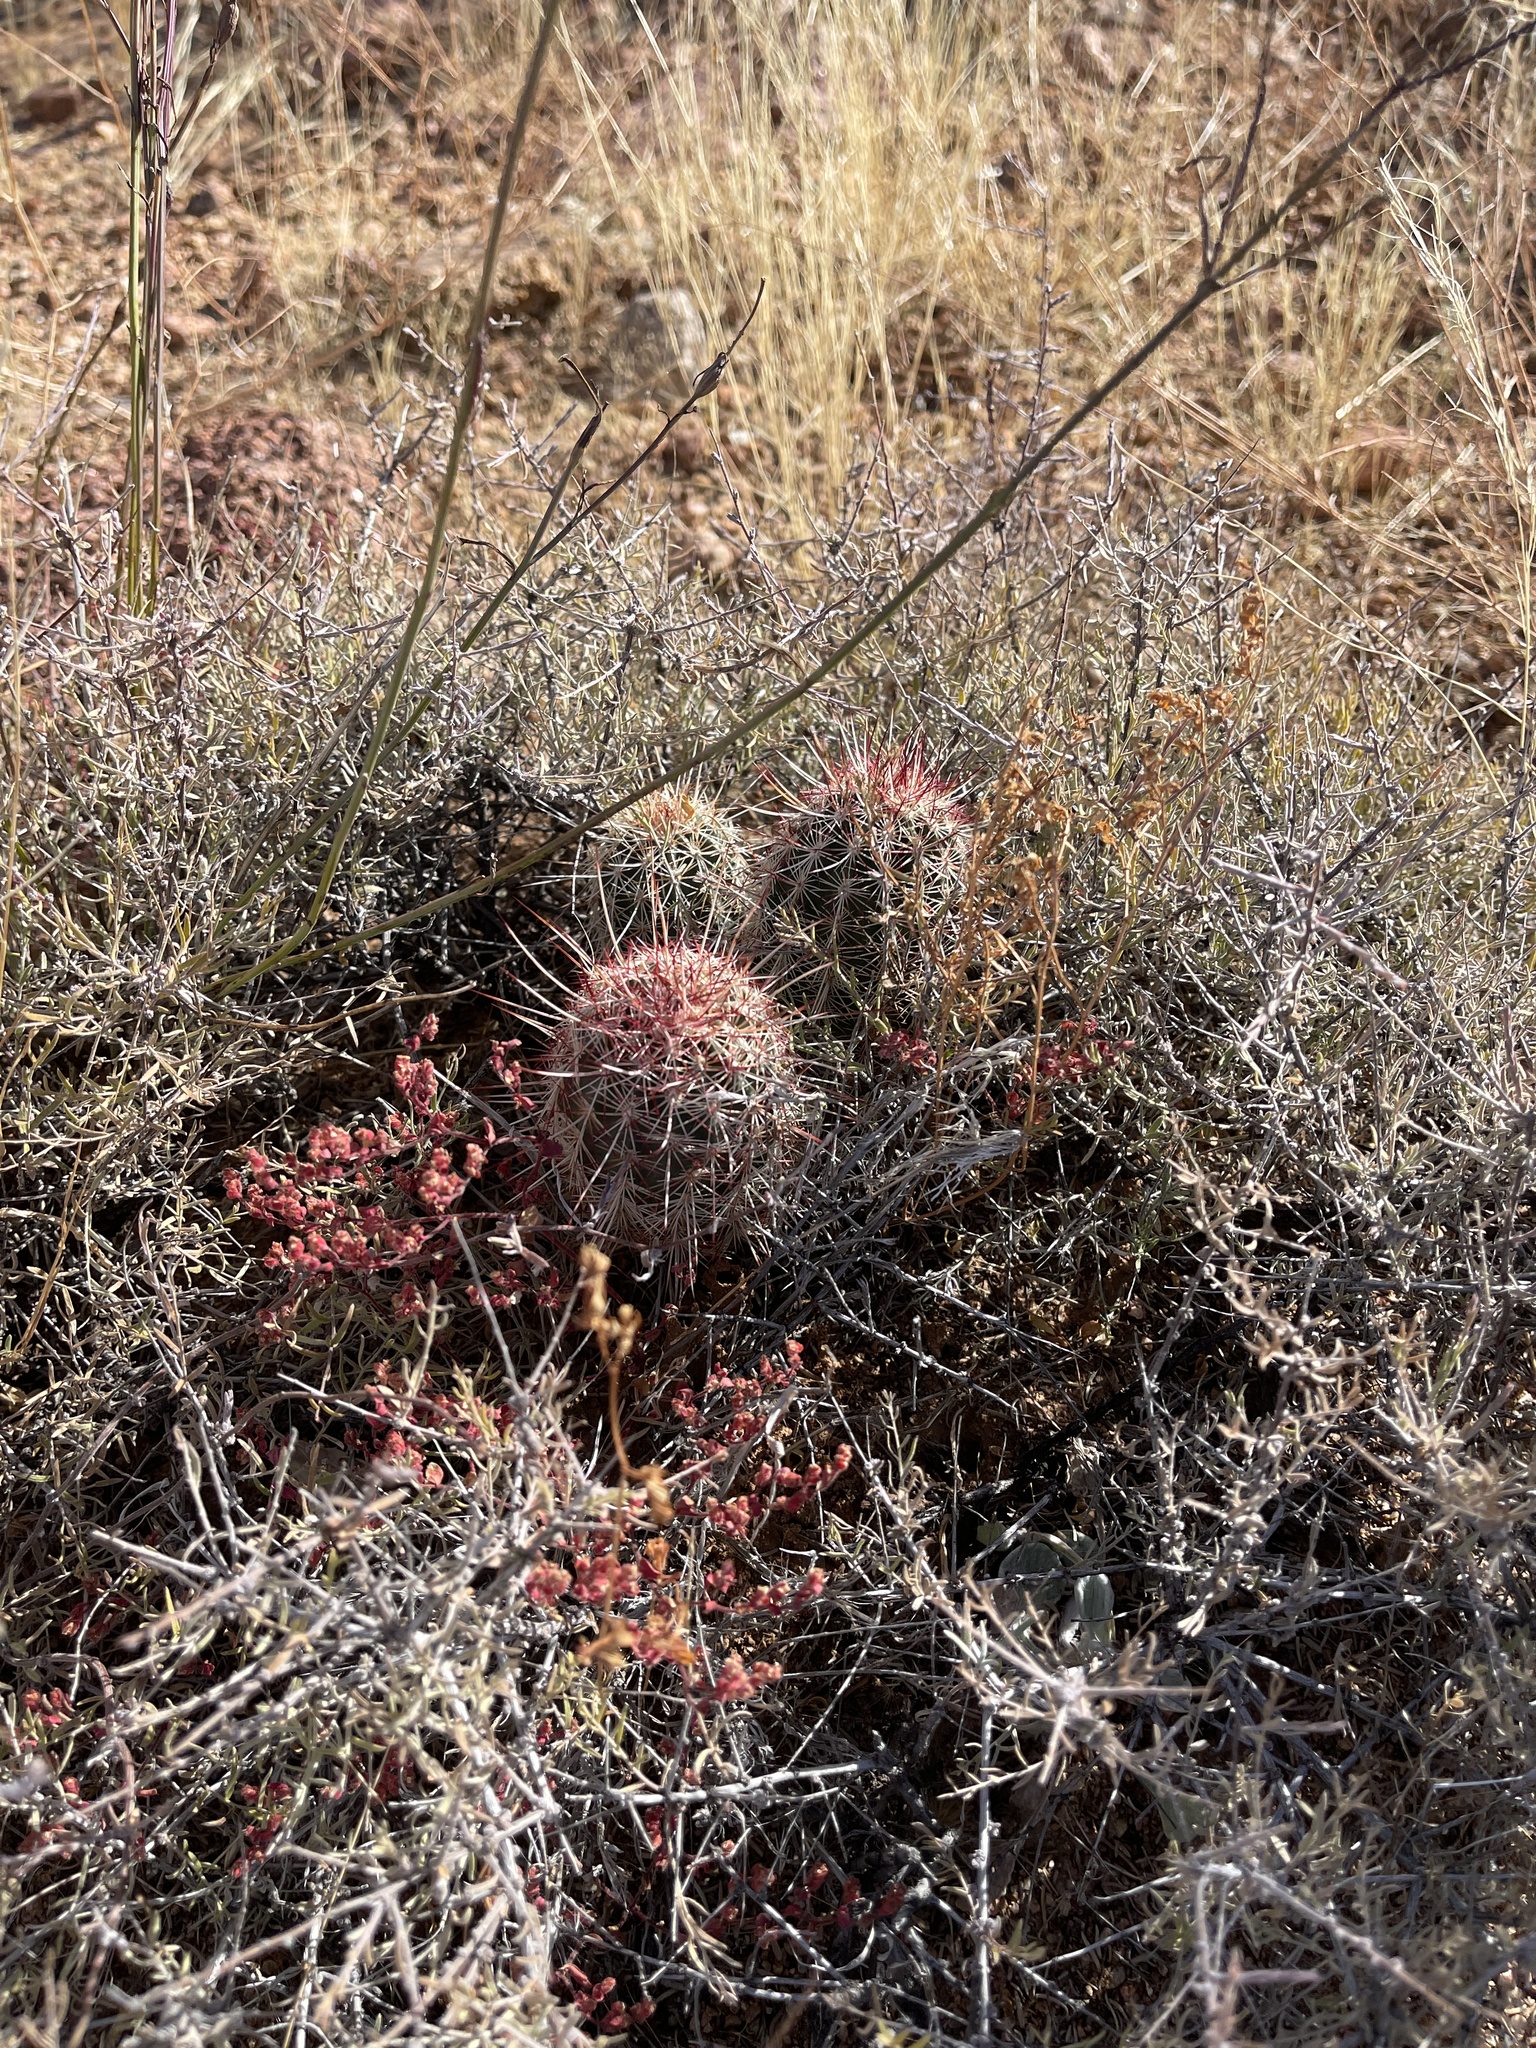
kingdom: Plantae
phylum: Tracheophyta
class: Magnoliopsida
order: Caryophyllales
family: Cactaceae
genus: Echinocereus
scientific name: Echinocereus viridiflorus
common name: Nylon hedgehog cactus
